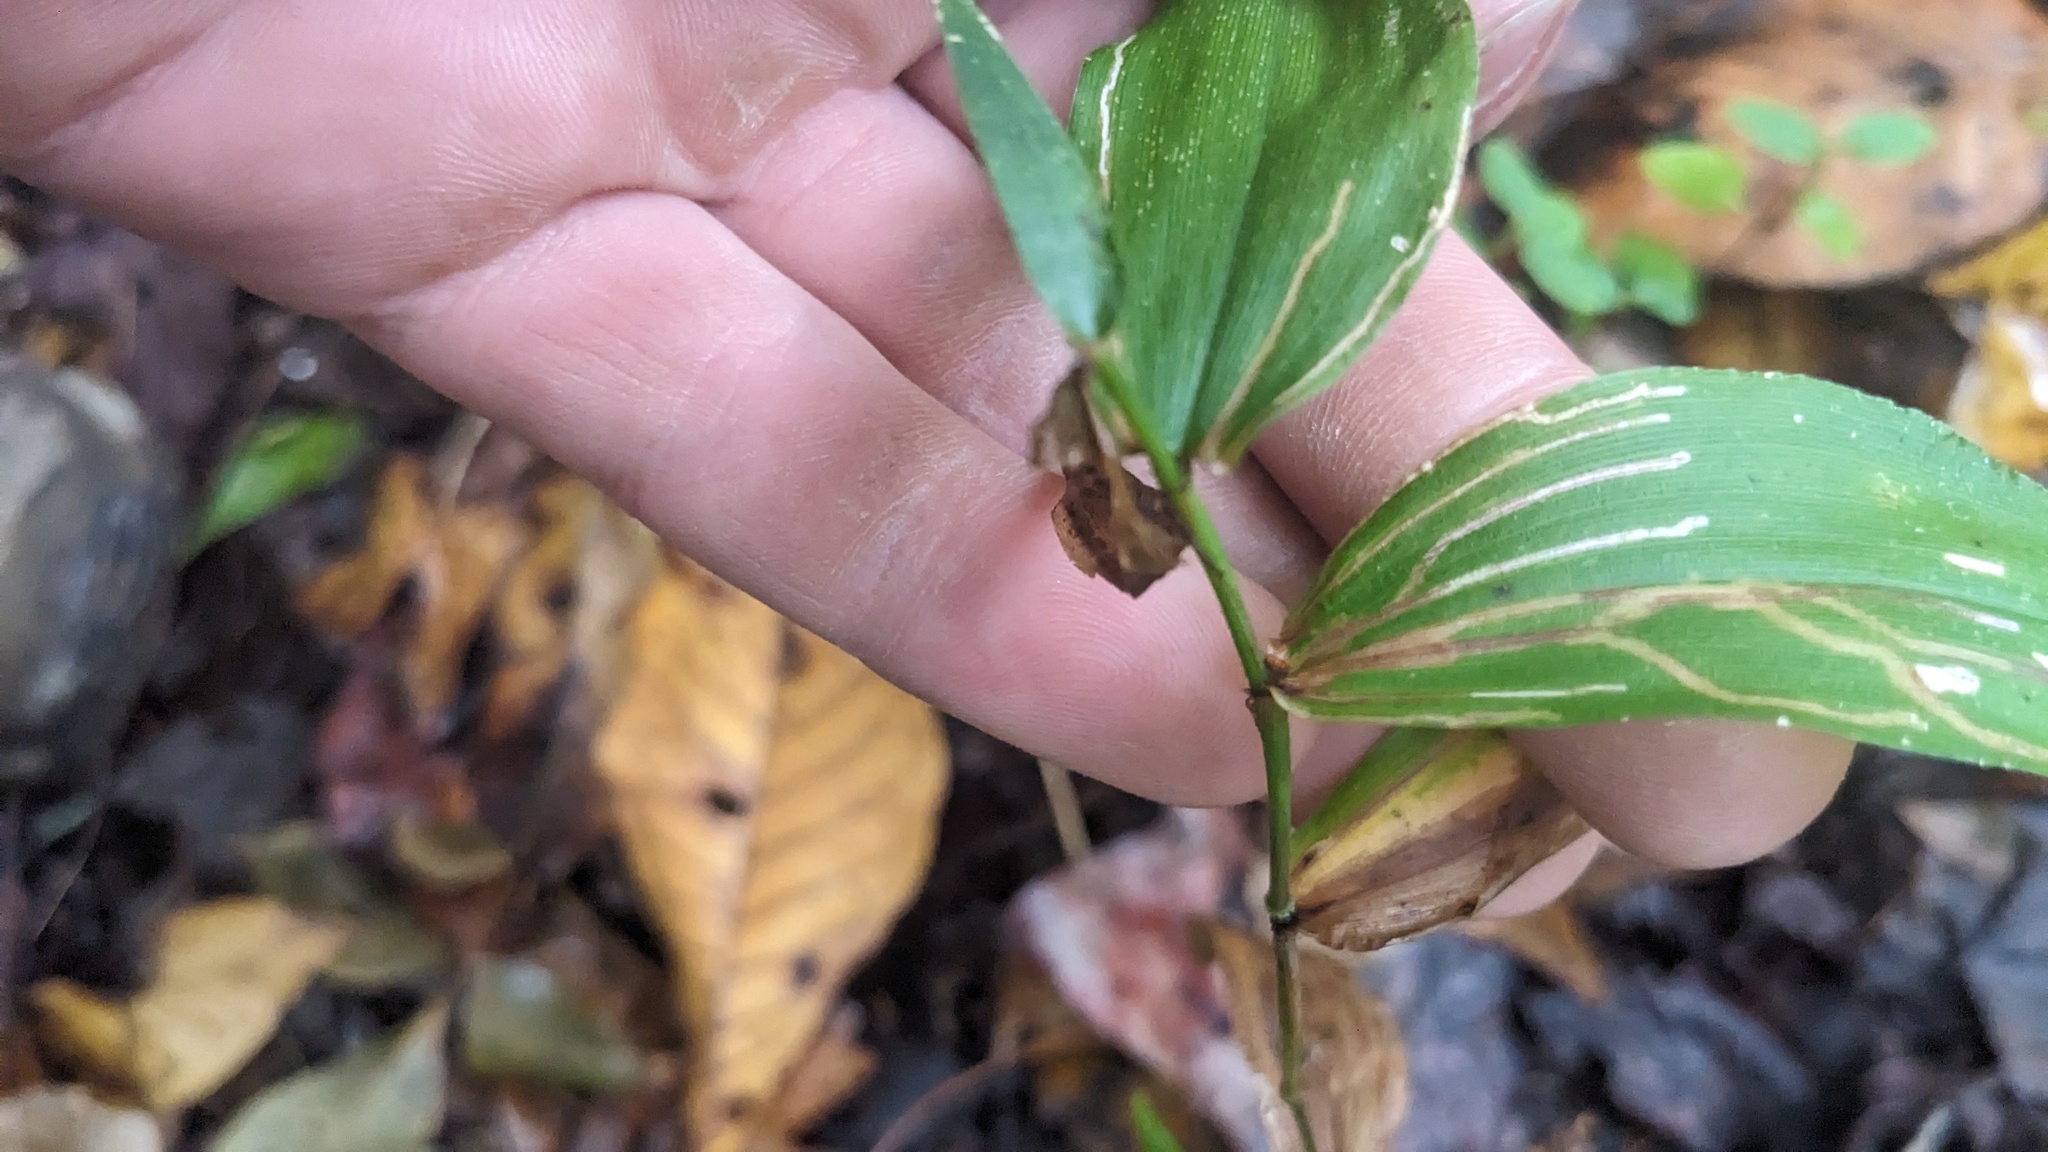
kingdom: Animalia
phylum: Arthropoda
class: Insecta
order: Diptera
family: Agromyzidae
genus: Cerodontha
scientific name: Cerodontha dorsalis
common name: Grass sheathminer fly
